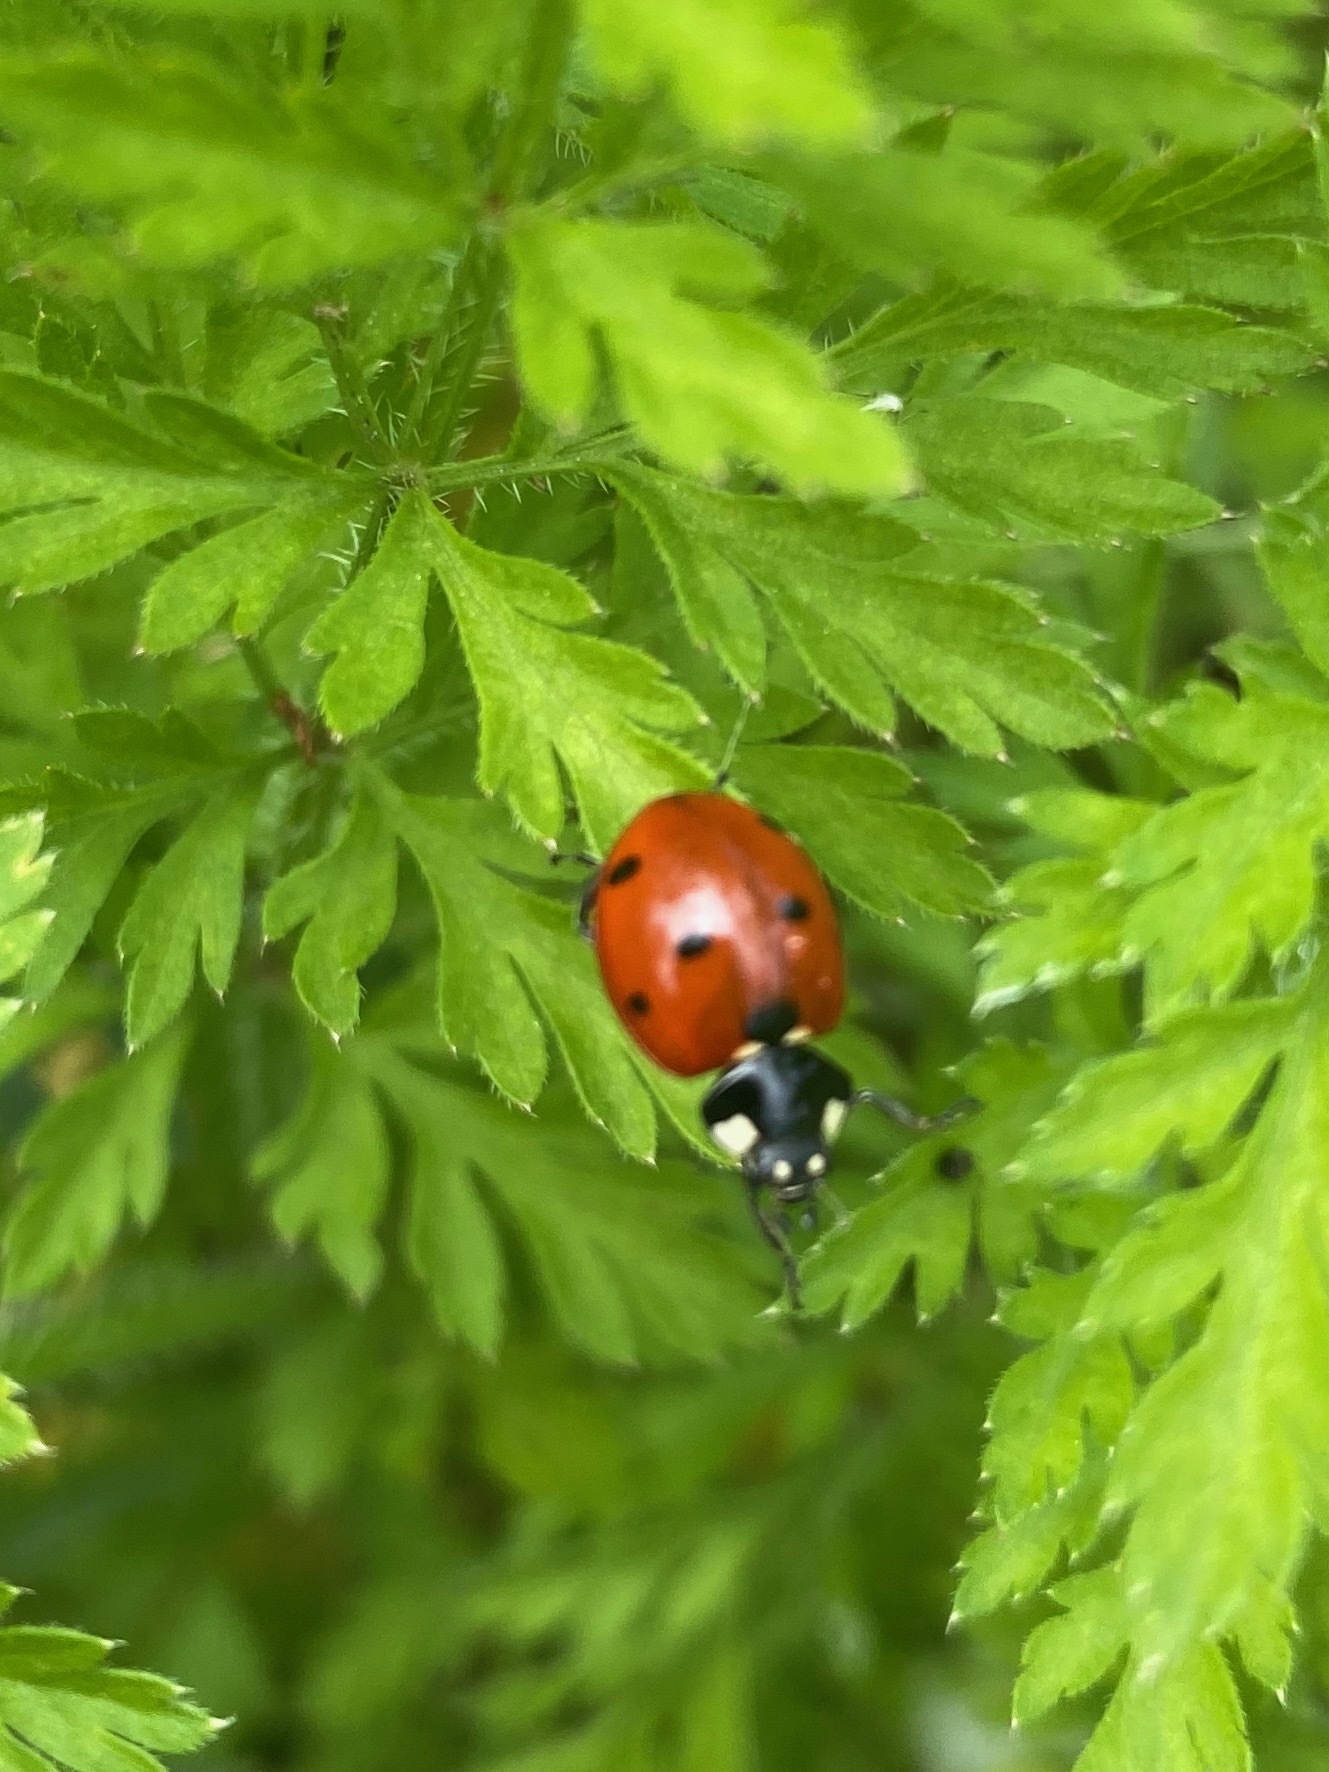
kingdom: Animalia
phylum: Arthropoda
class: Insecta
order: Coleoptera
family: Coccinellidae
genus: Coccinella
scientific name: Coccinella septempunctata
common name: Sevenspotted lady beetle
